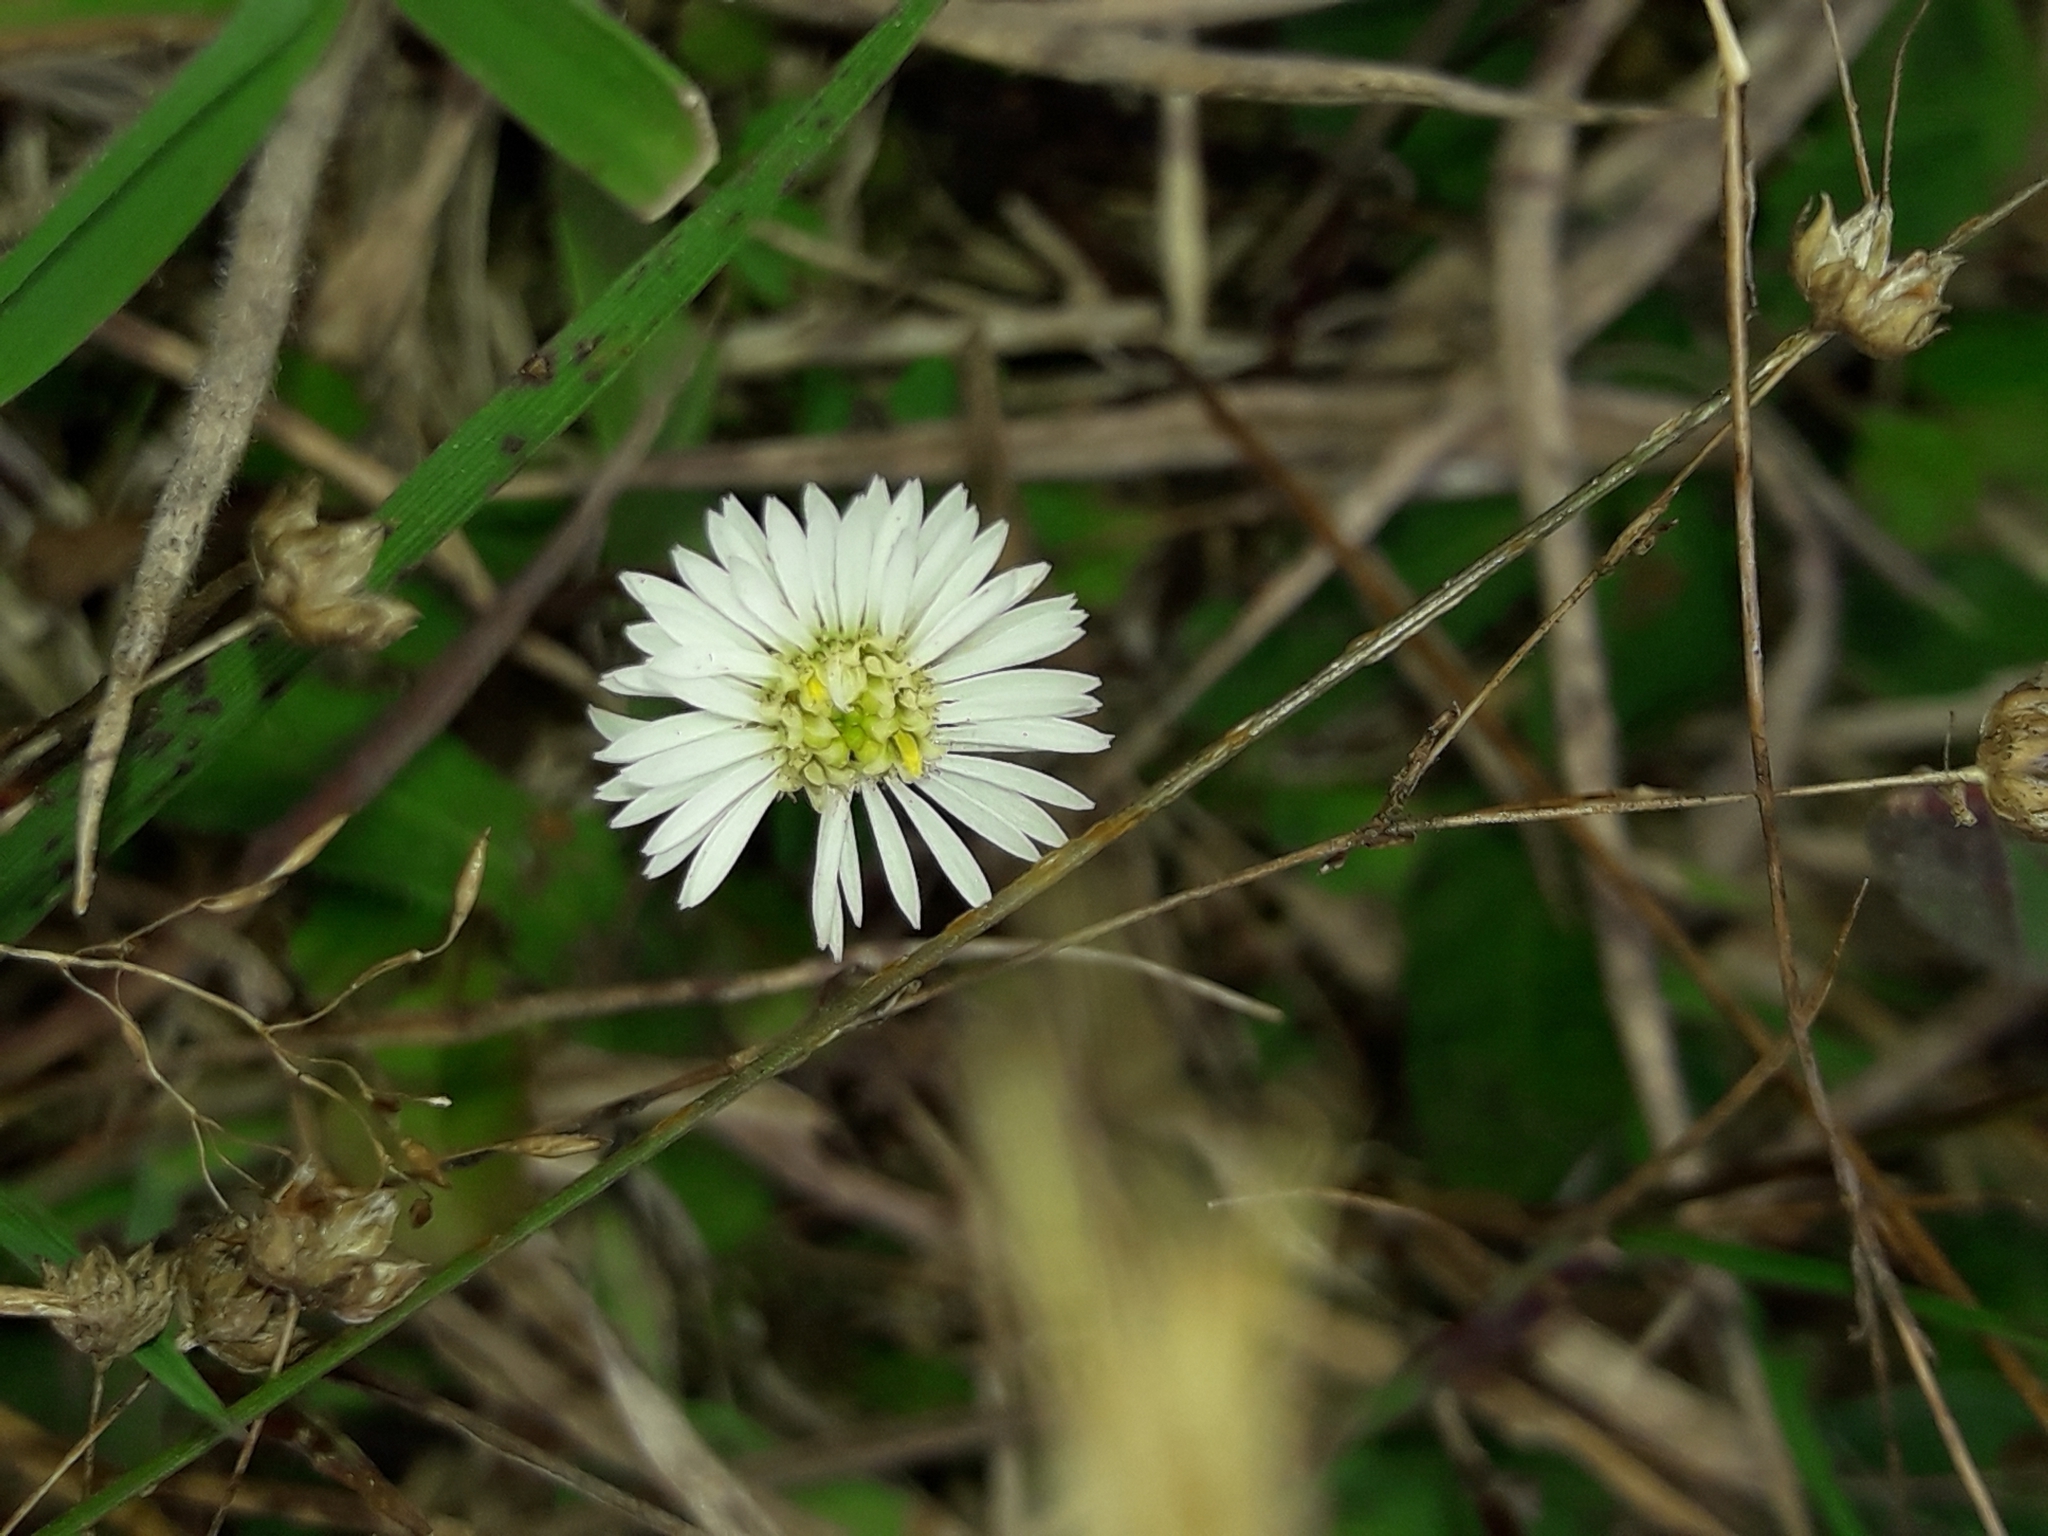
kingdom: Plantae
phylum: Tracheophyta
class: Magnoliopsida
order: Asterales
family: Asteraceae
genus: Lagenophora
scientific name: Lagenophora pumila
